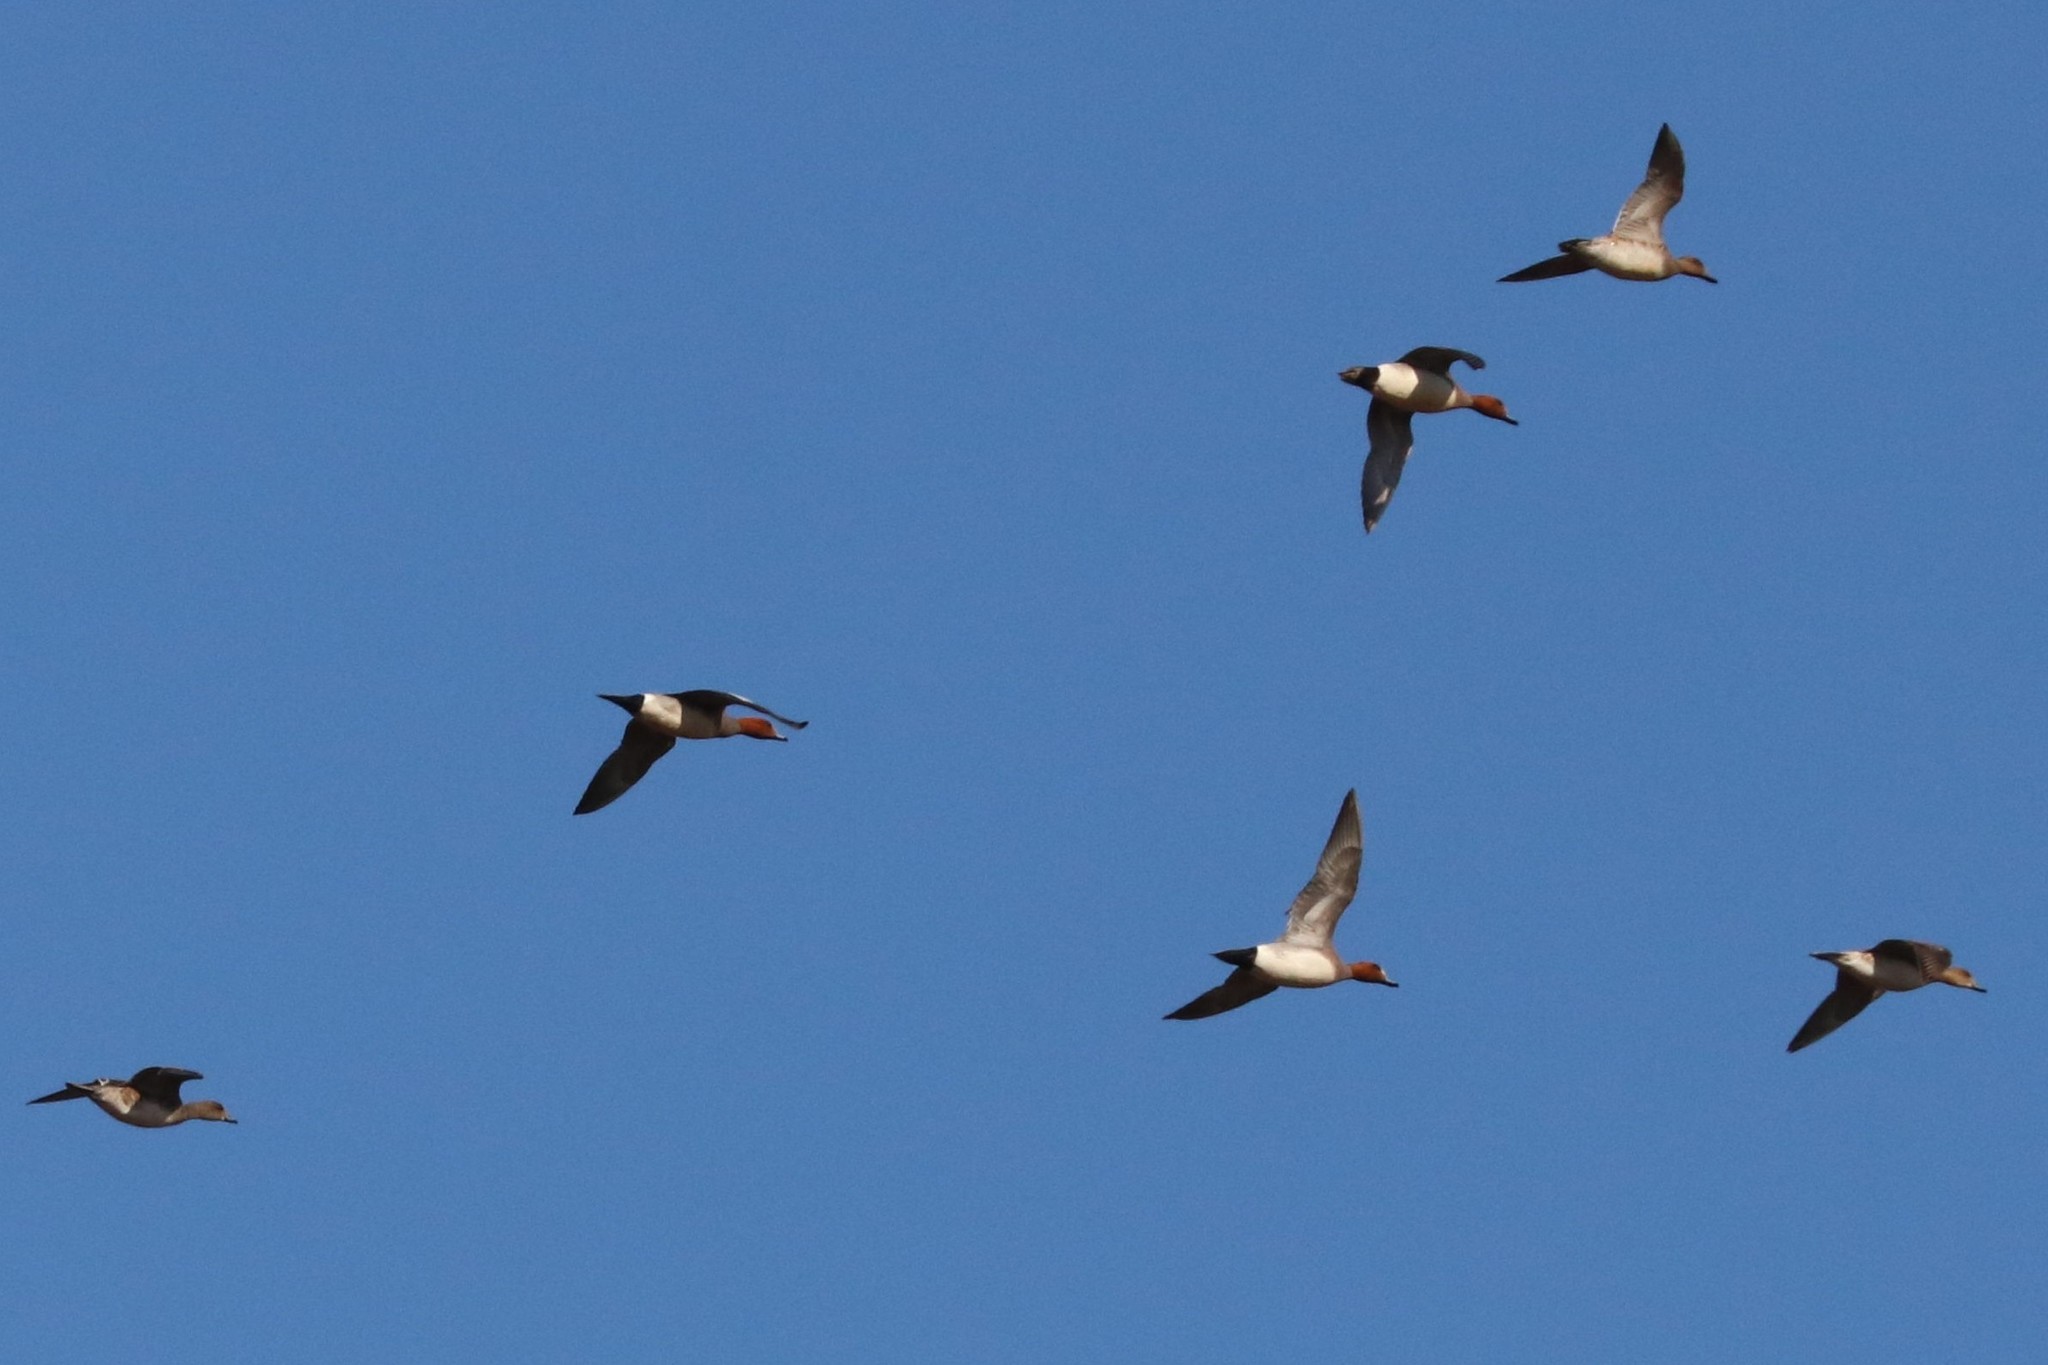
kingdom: Animalia
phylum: Chordata
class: Aves
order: Anseriformes
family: Anatidae
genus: Mareca
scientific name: Mareca penelope
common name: Eurasian wigeon
